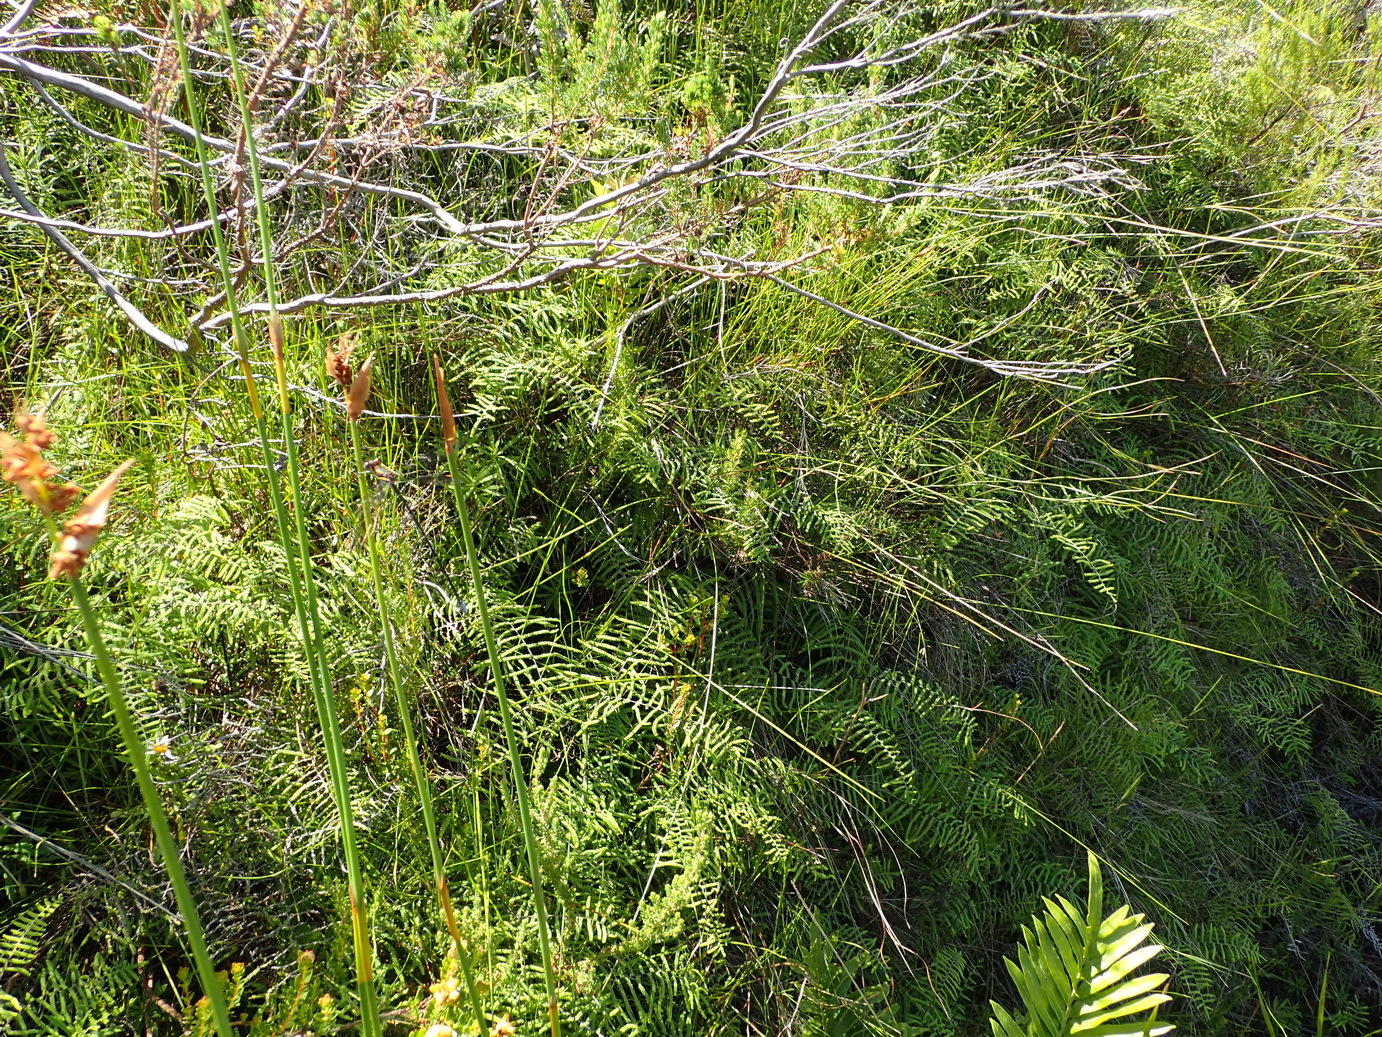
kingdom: Plantae
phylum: Tracheophyta
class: Polypodiopsida
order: Gleicheniales
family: Gleicheniaceae
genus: Gleichenia
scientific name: Gleichenia polypodioides
